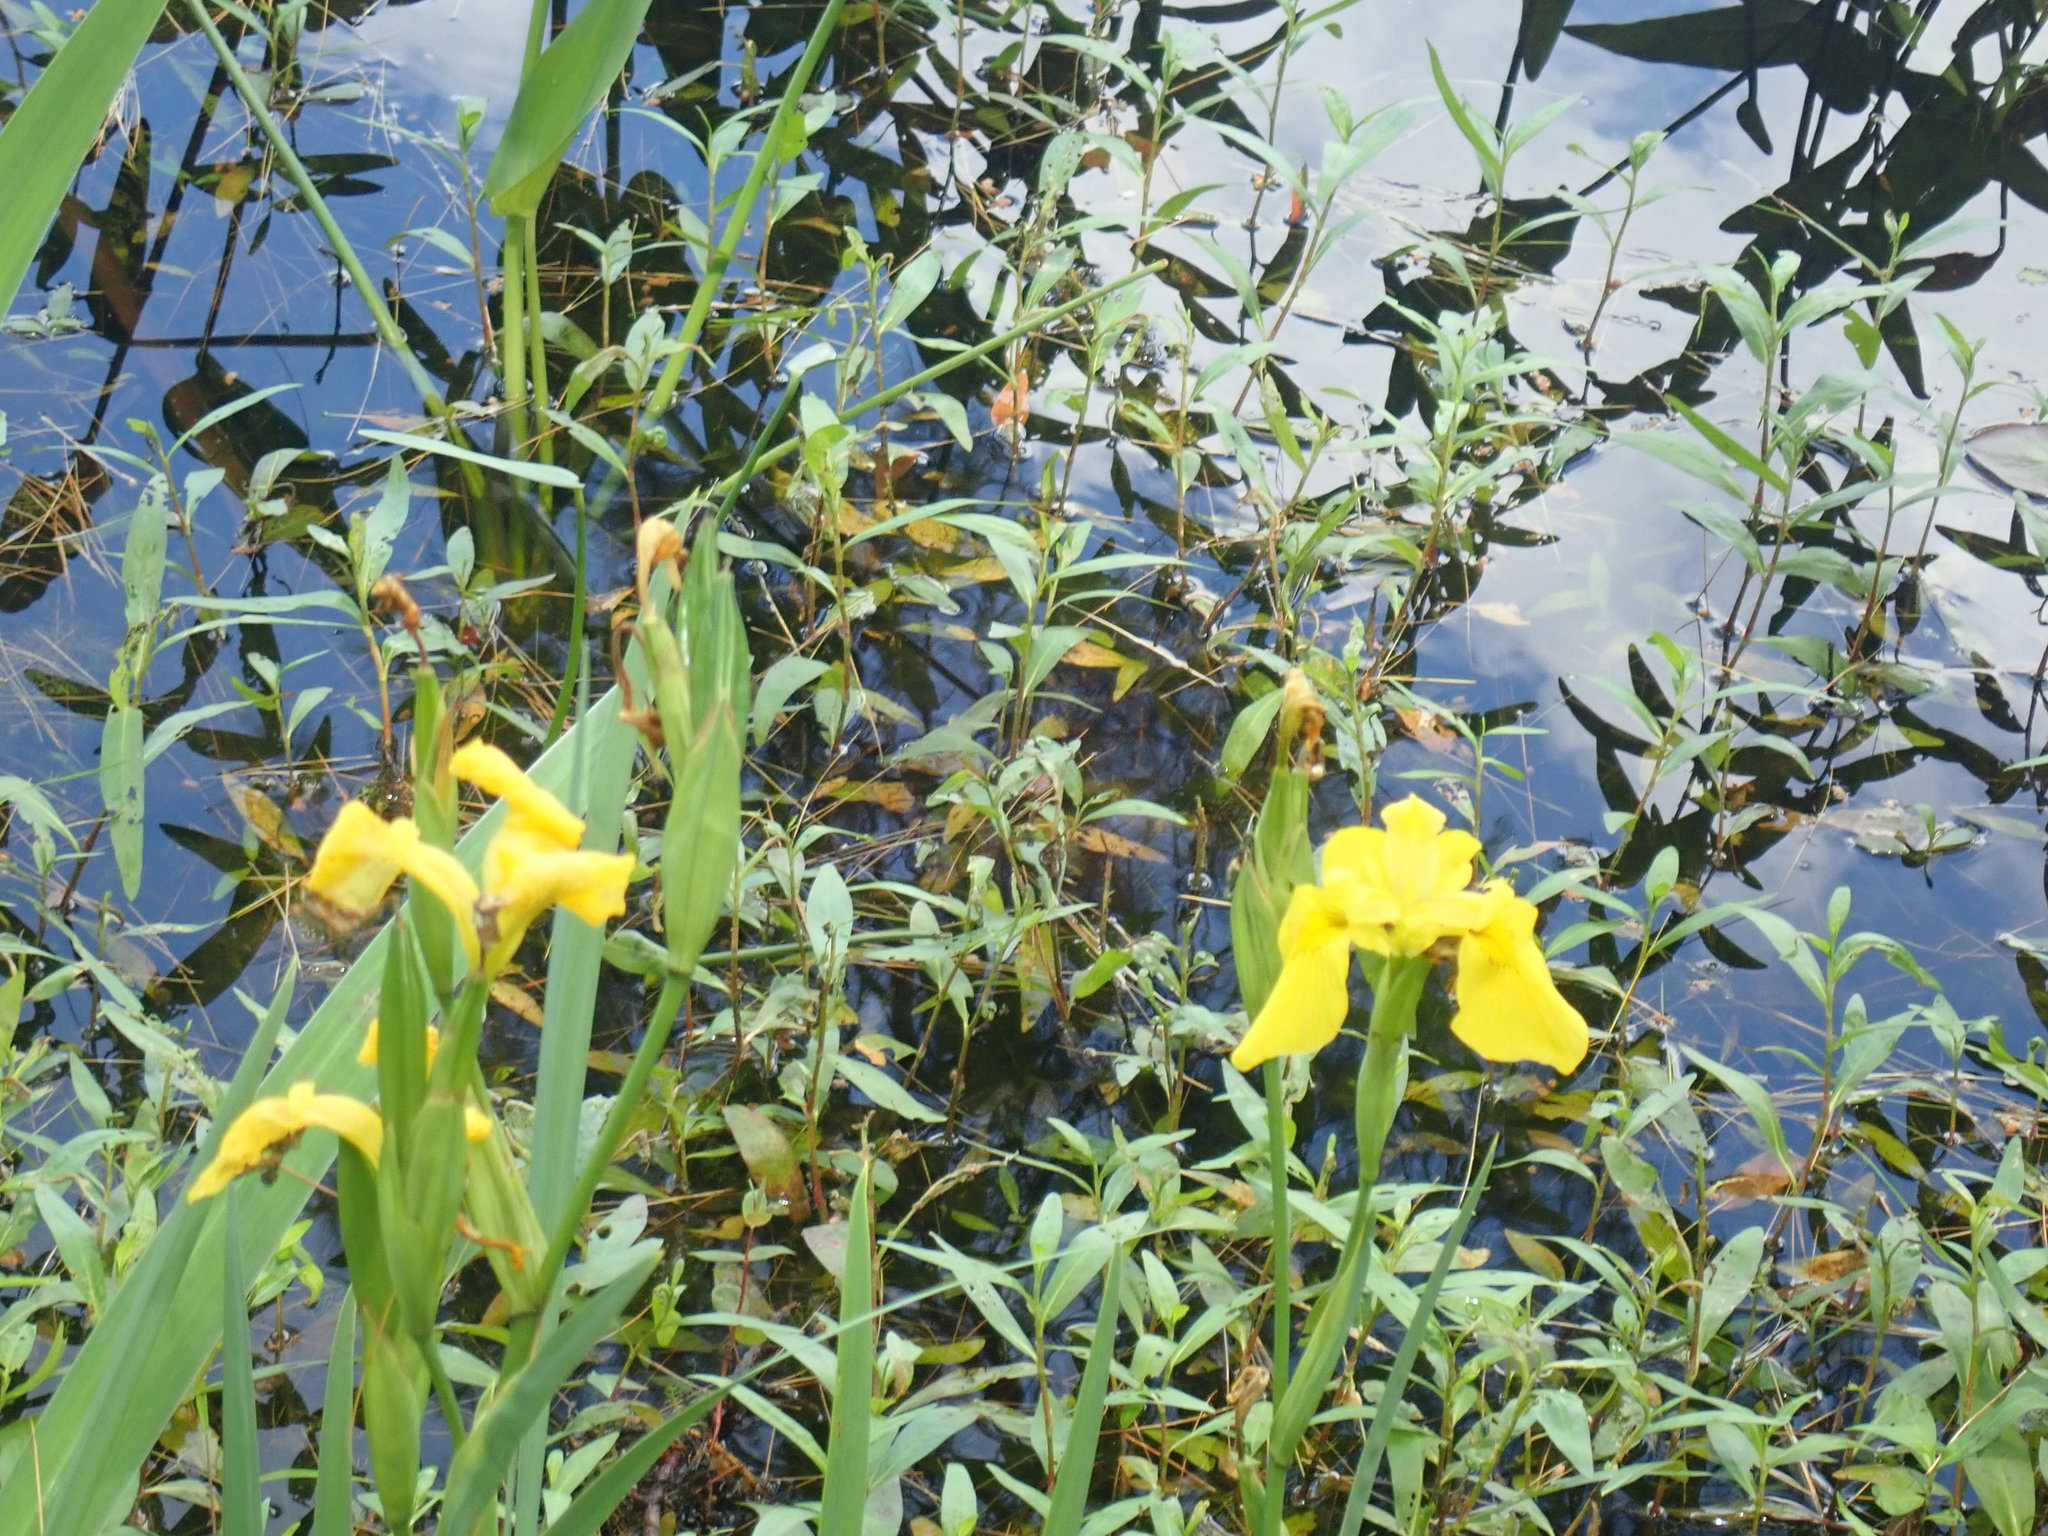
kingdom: Plantae
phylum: Tracheophyta
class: Liliopsida
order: Asparagales
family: Iridaceae
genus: Iris
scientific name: Iris pseudacorus
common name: Yellow flag
